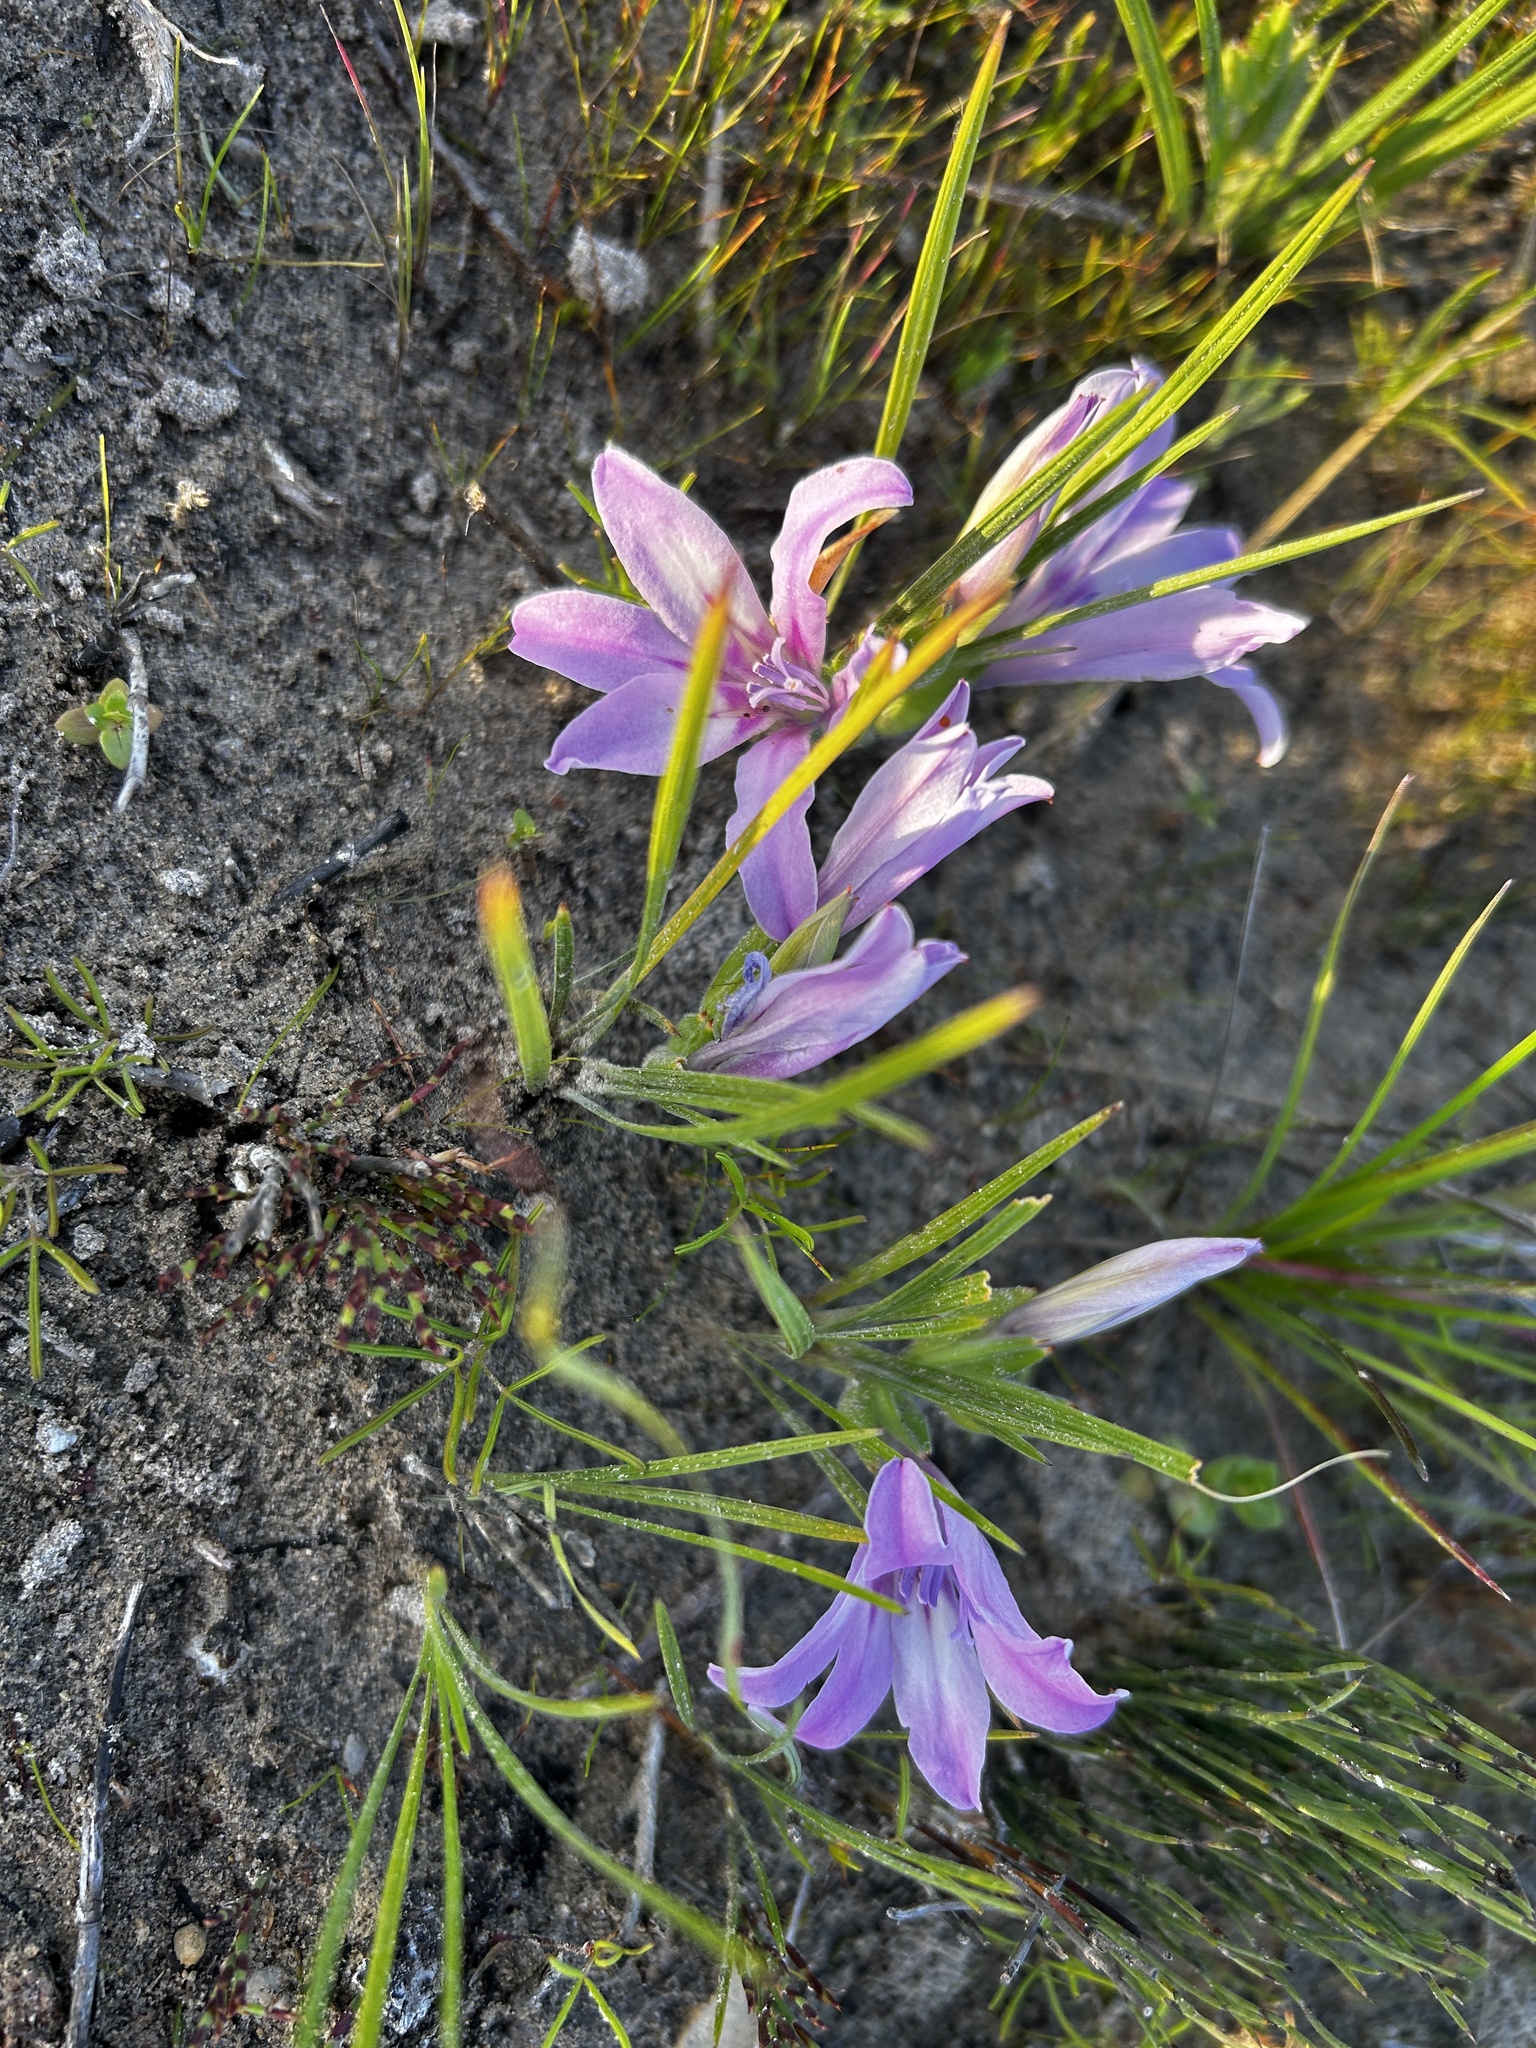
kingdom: Plantae
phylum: Tracheophyta
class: Liliopsida
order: Asparagales
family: Iridaceae
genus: Babiana
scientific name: Babiana ambigua
